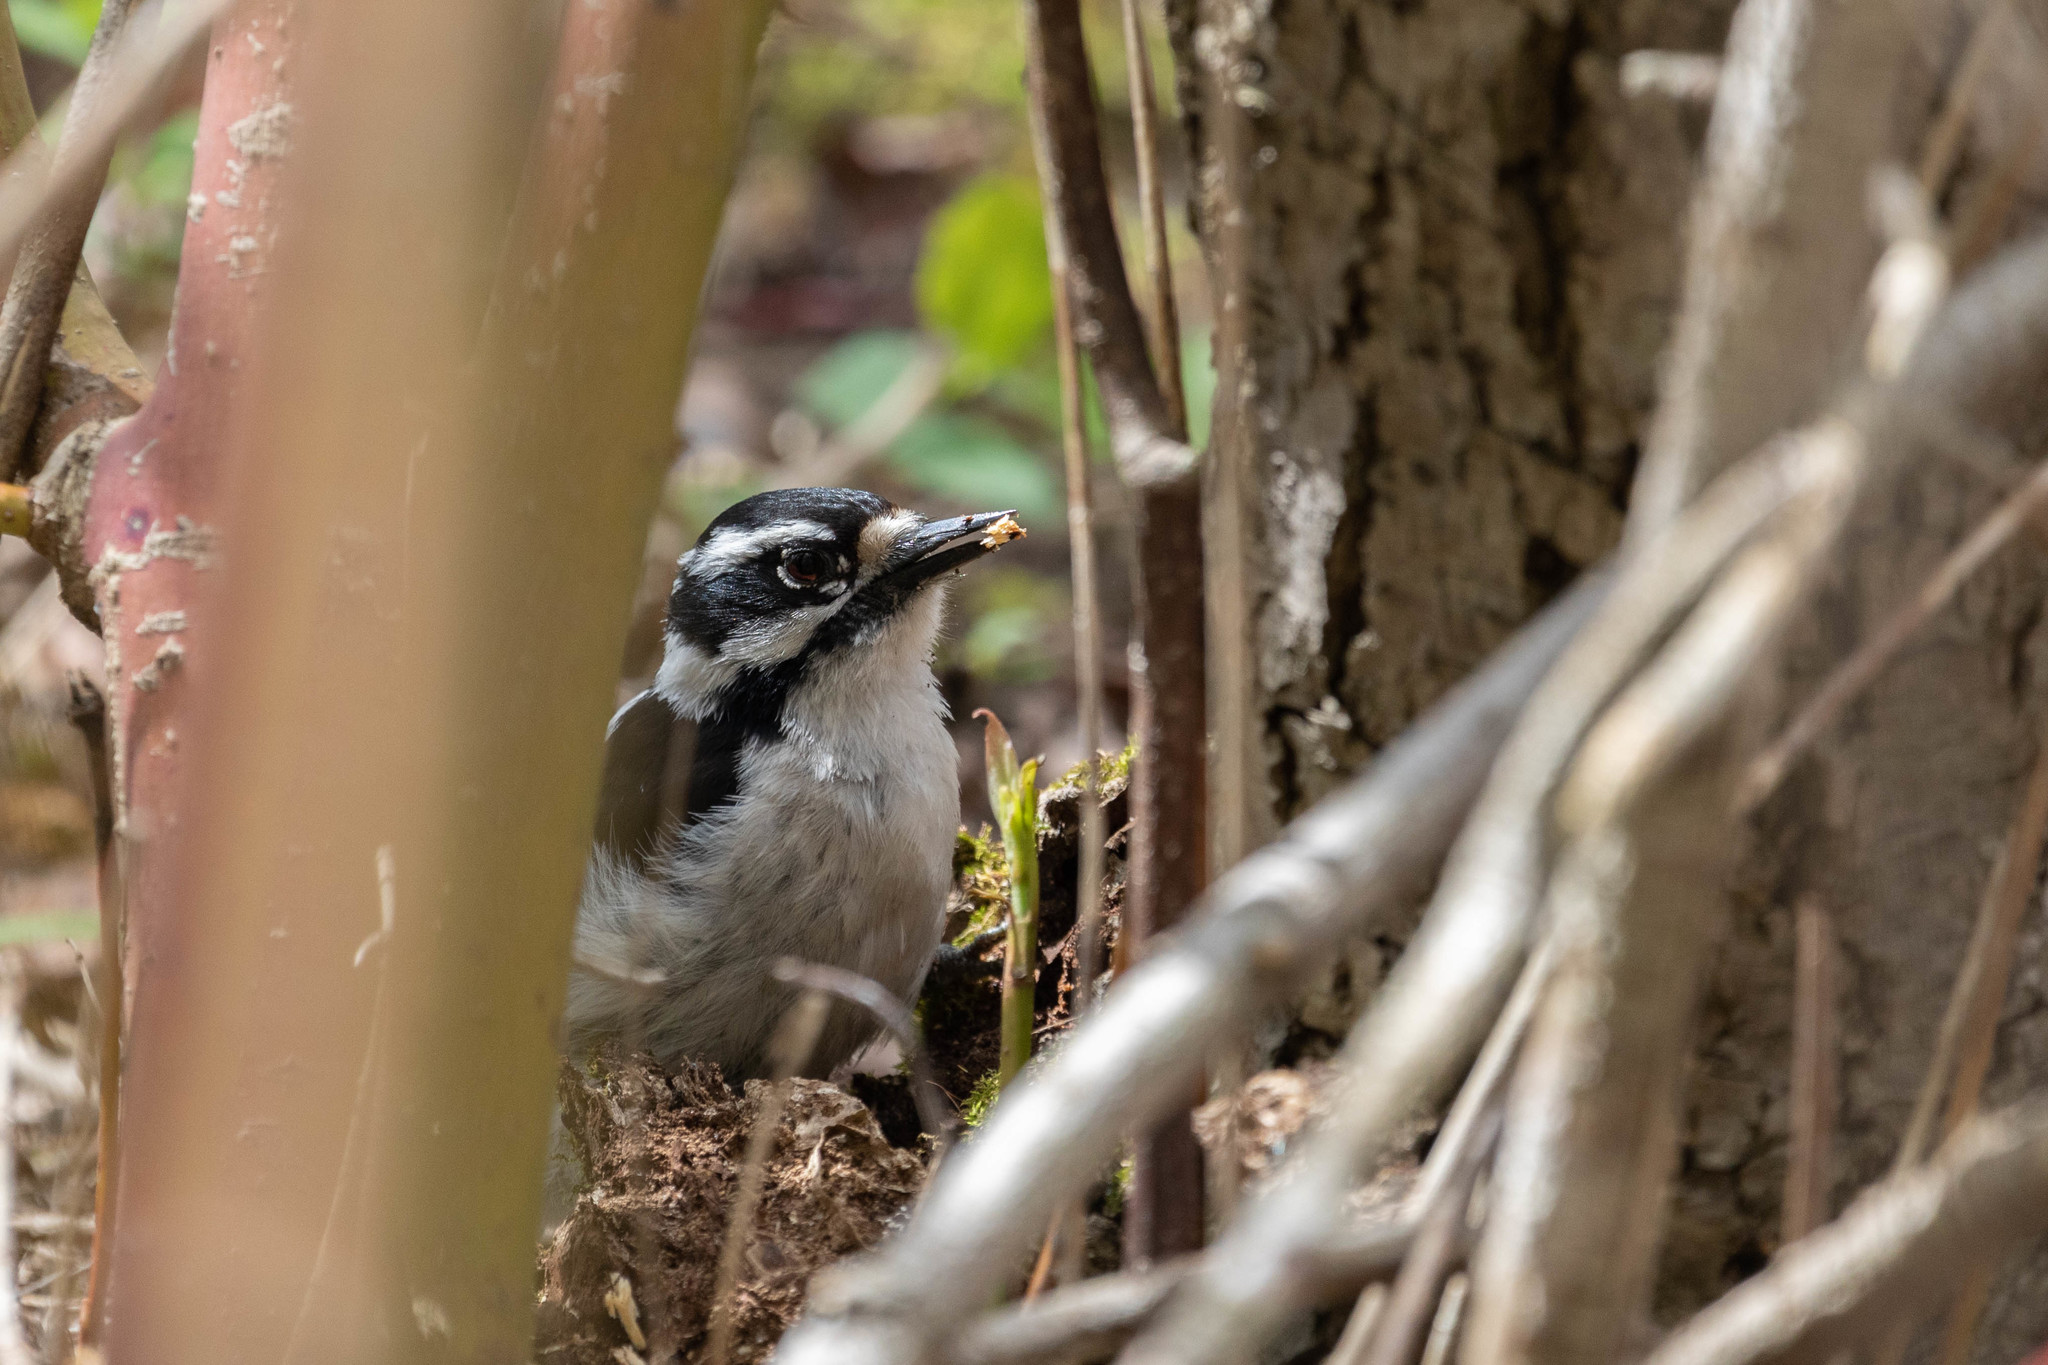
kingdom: Animalia
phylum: Chordata
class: Aves
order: Piciformes
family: Picidae
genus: Dryobates
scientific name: Dryobates pubescens
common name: Downy woodpecker
